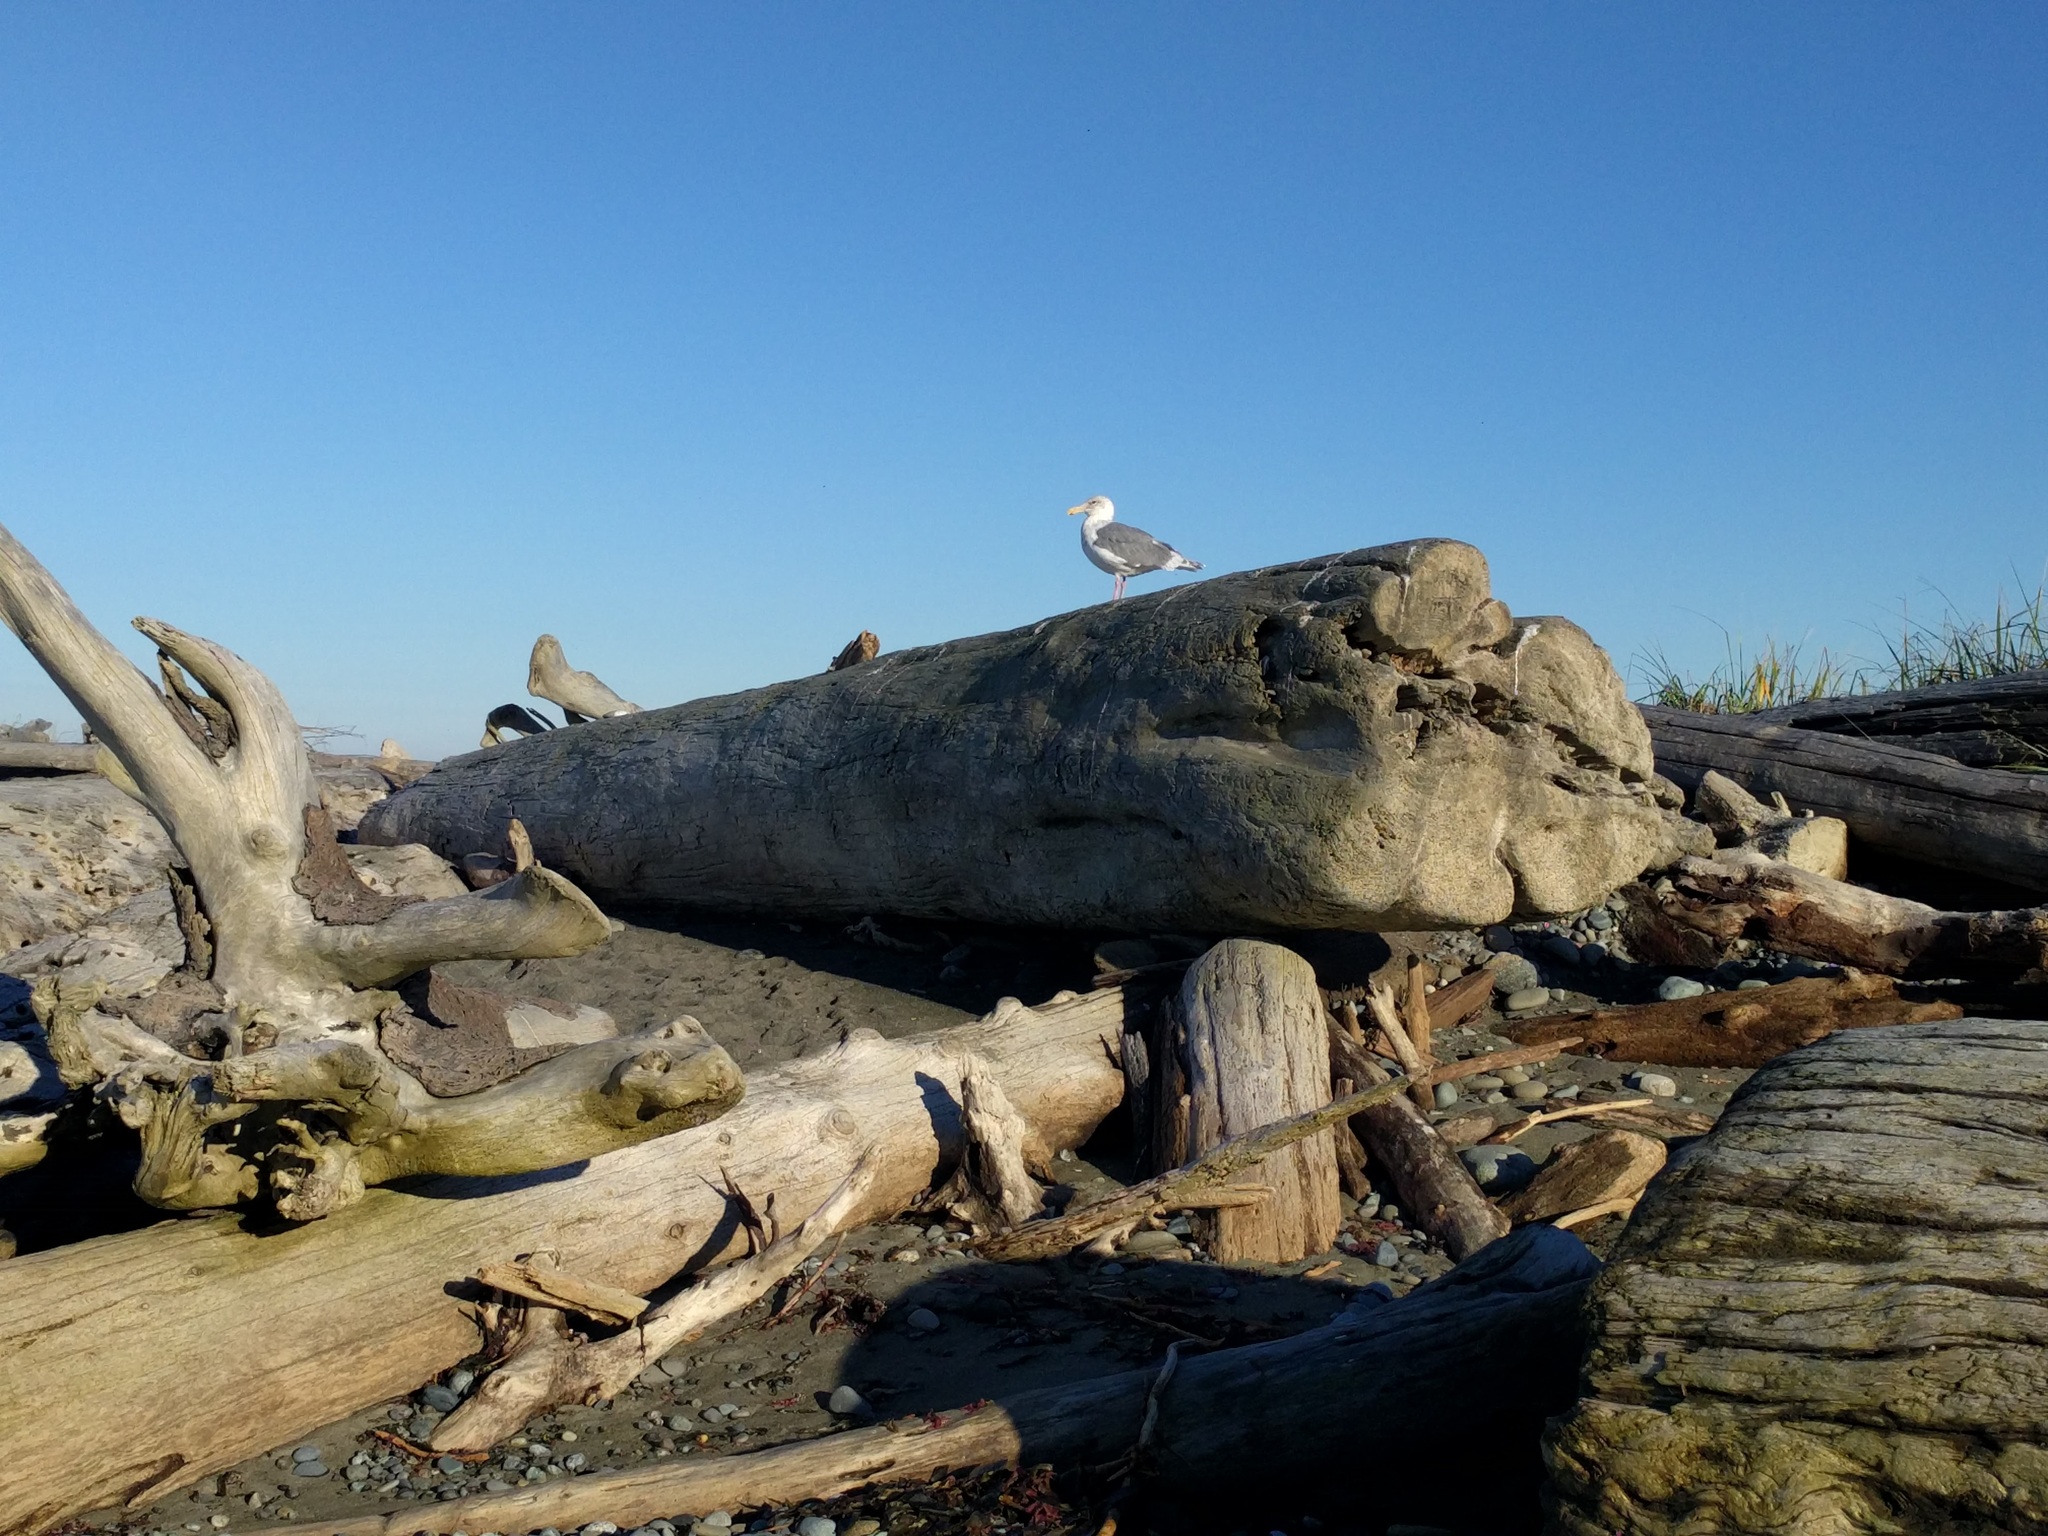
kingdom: Animalia
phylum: Chordata
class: Aves
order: Charadriiformes
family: Laridae
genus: Larus
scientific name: Larus
